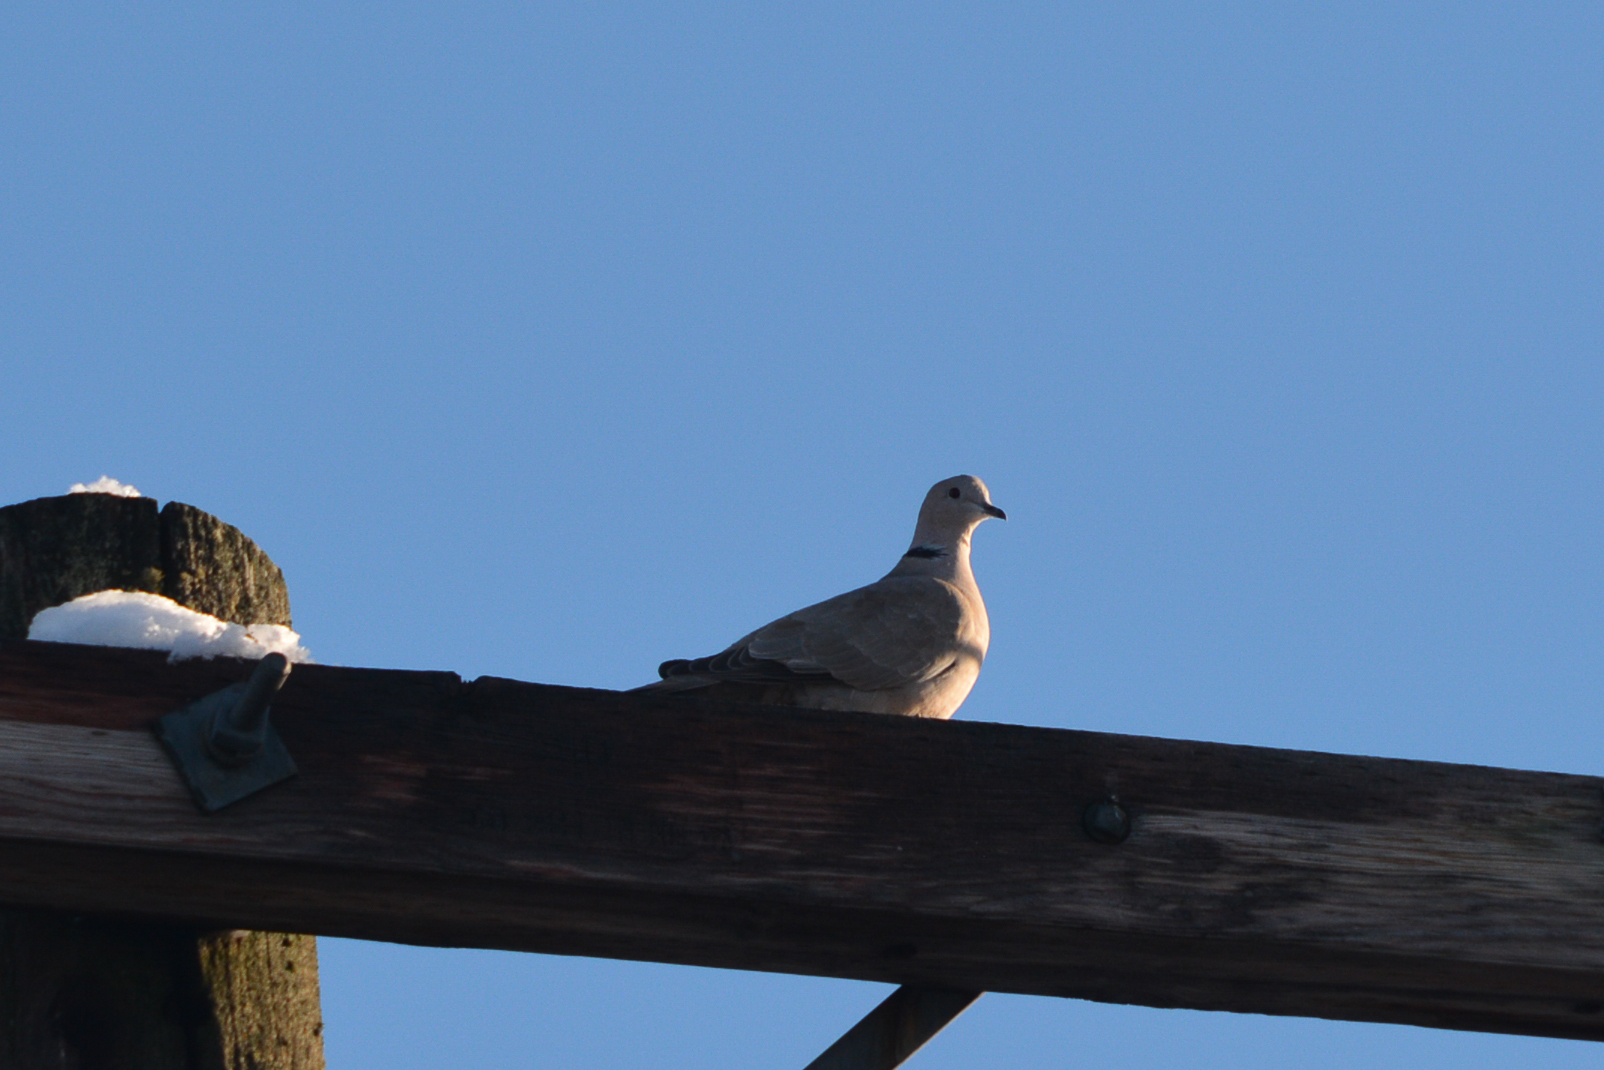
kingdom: Animalia
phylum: Chordata
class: Aves
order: Columbiformes
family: Columbidae
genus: Streptopelia
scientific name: Streptopelia decaocto
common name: Eurasian collared dove
